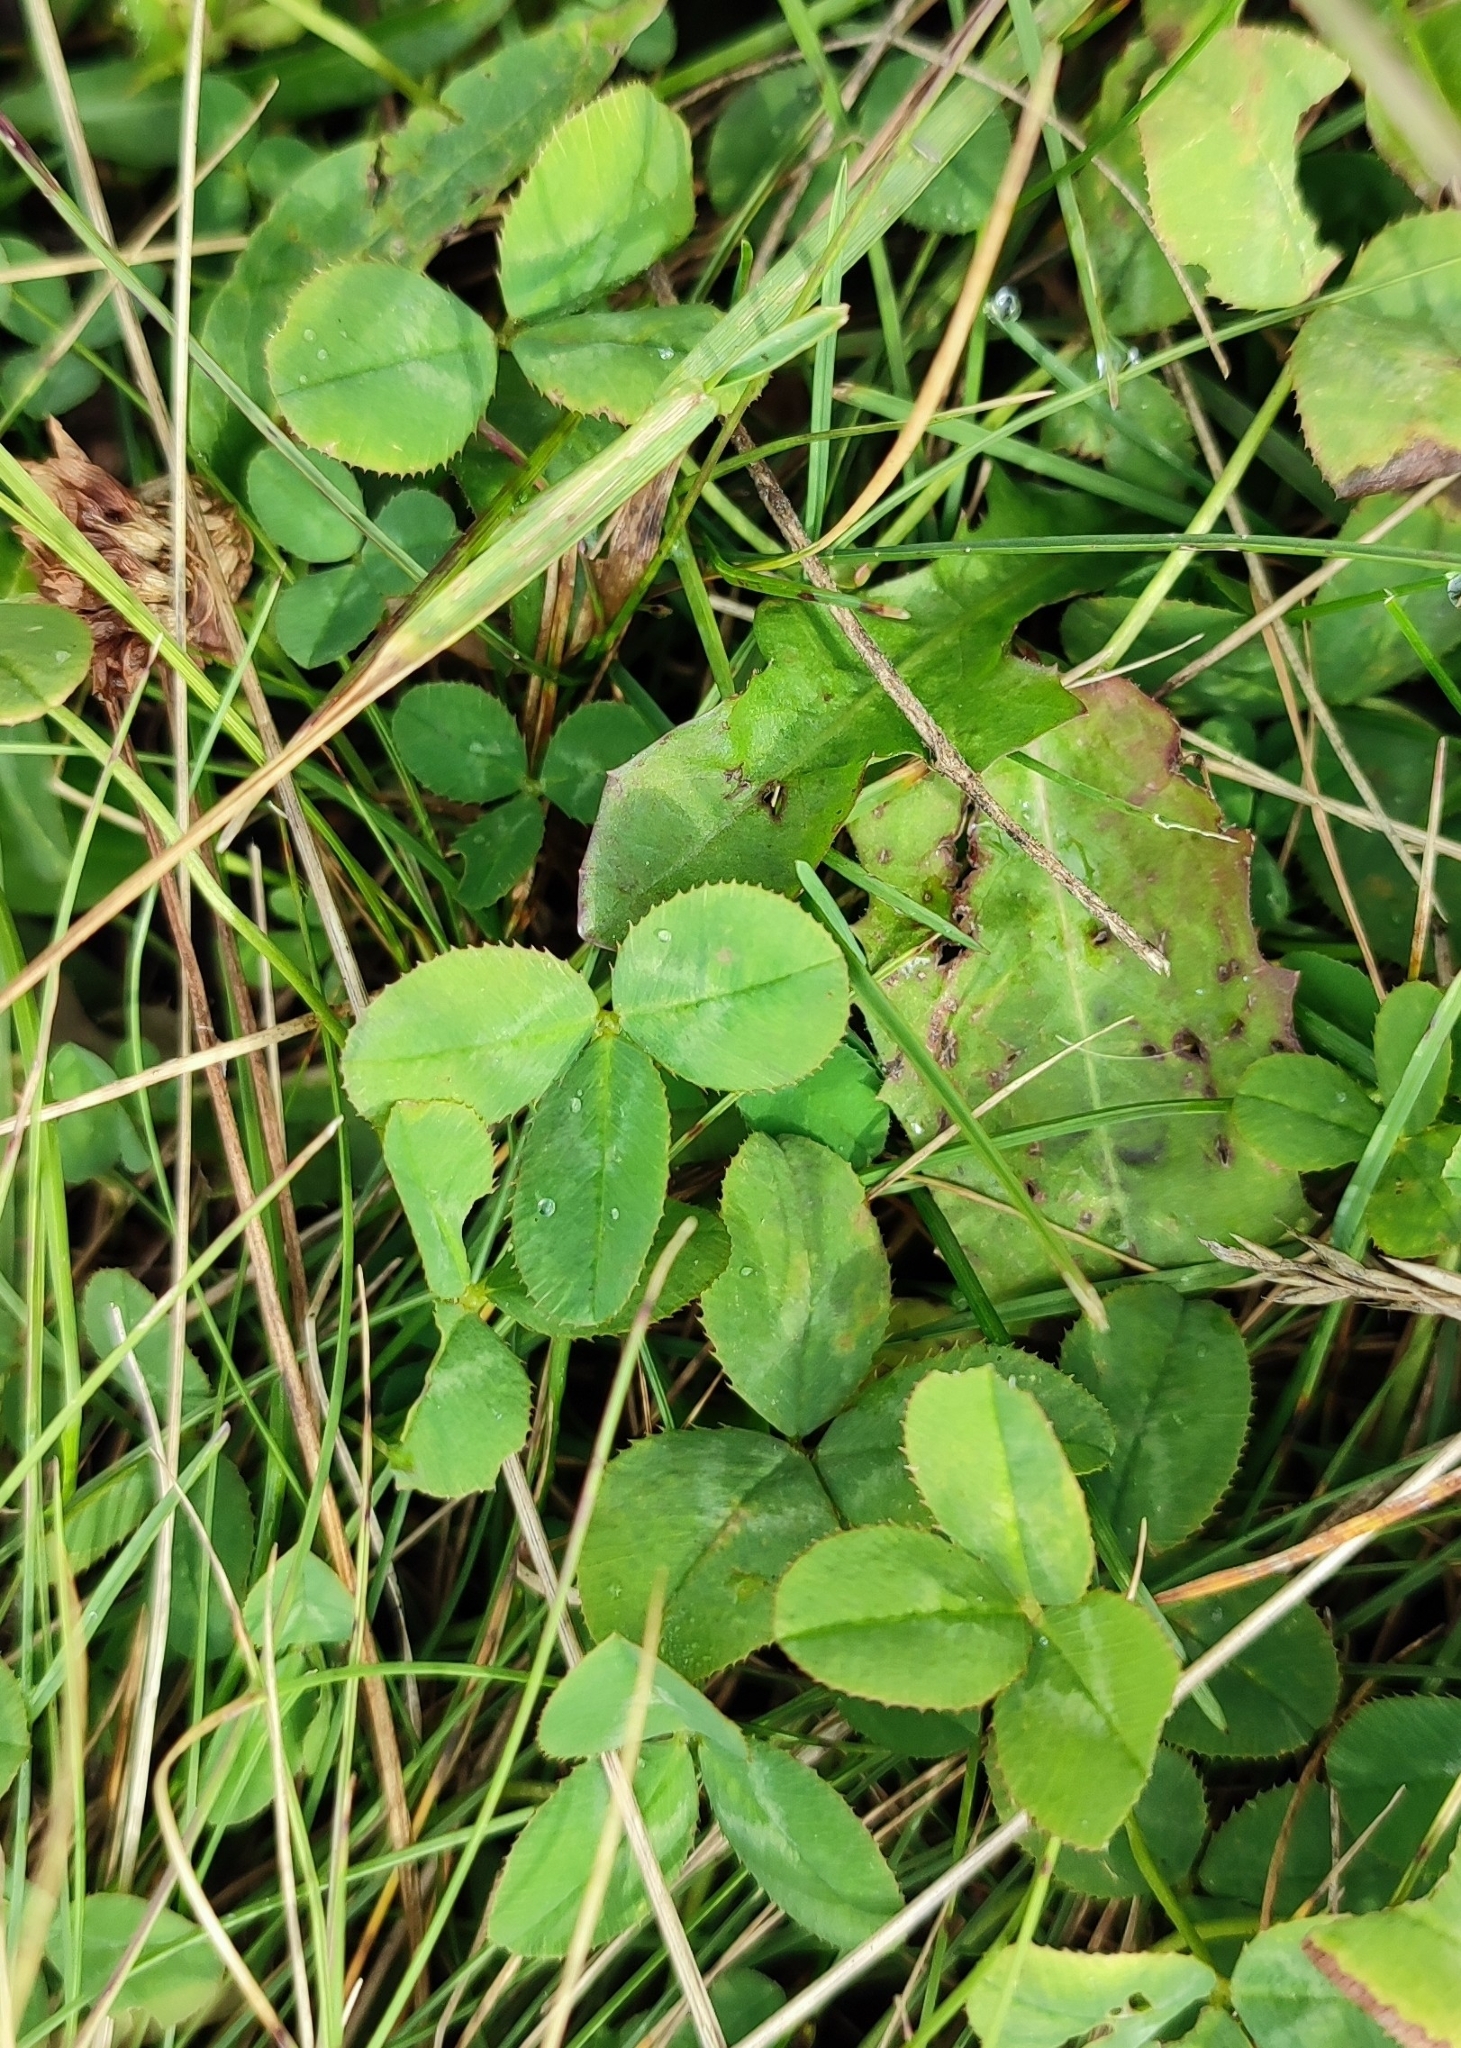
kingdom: Plantae
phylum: Tracheophyta
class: Magnoliopsida
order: Fabales
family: Fabaceae
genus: Trifolium
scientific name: Trifolium repens
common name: White clover
